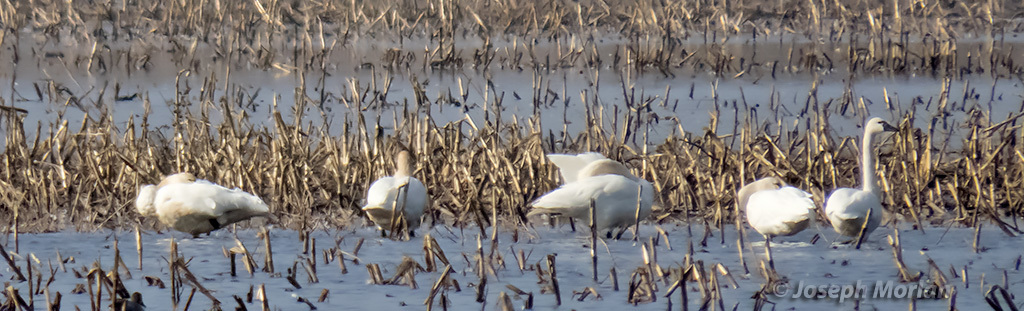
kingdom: Animalia
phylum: Chordata
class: Aves
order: Anseriformes
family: Anatidae
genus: Cygnus
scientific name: Cygnus columbianus
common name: Tundra swan
